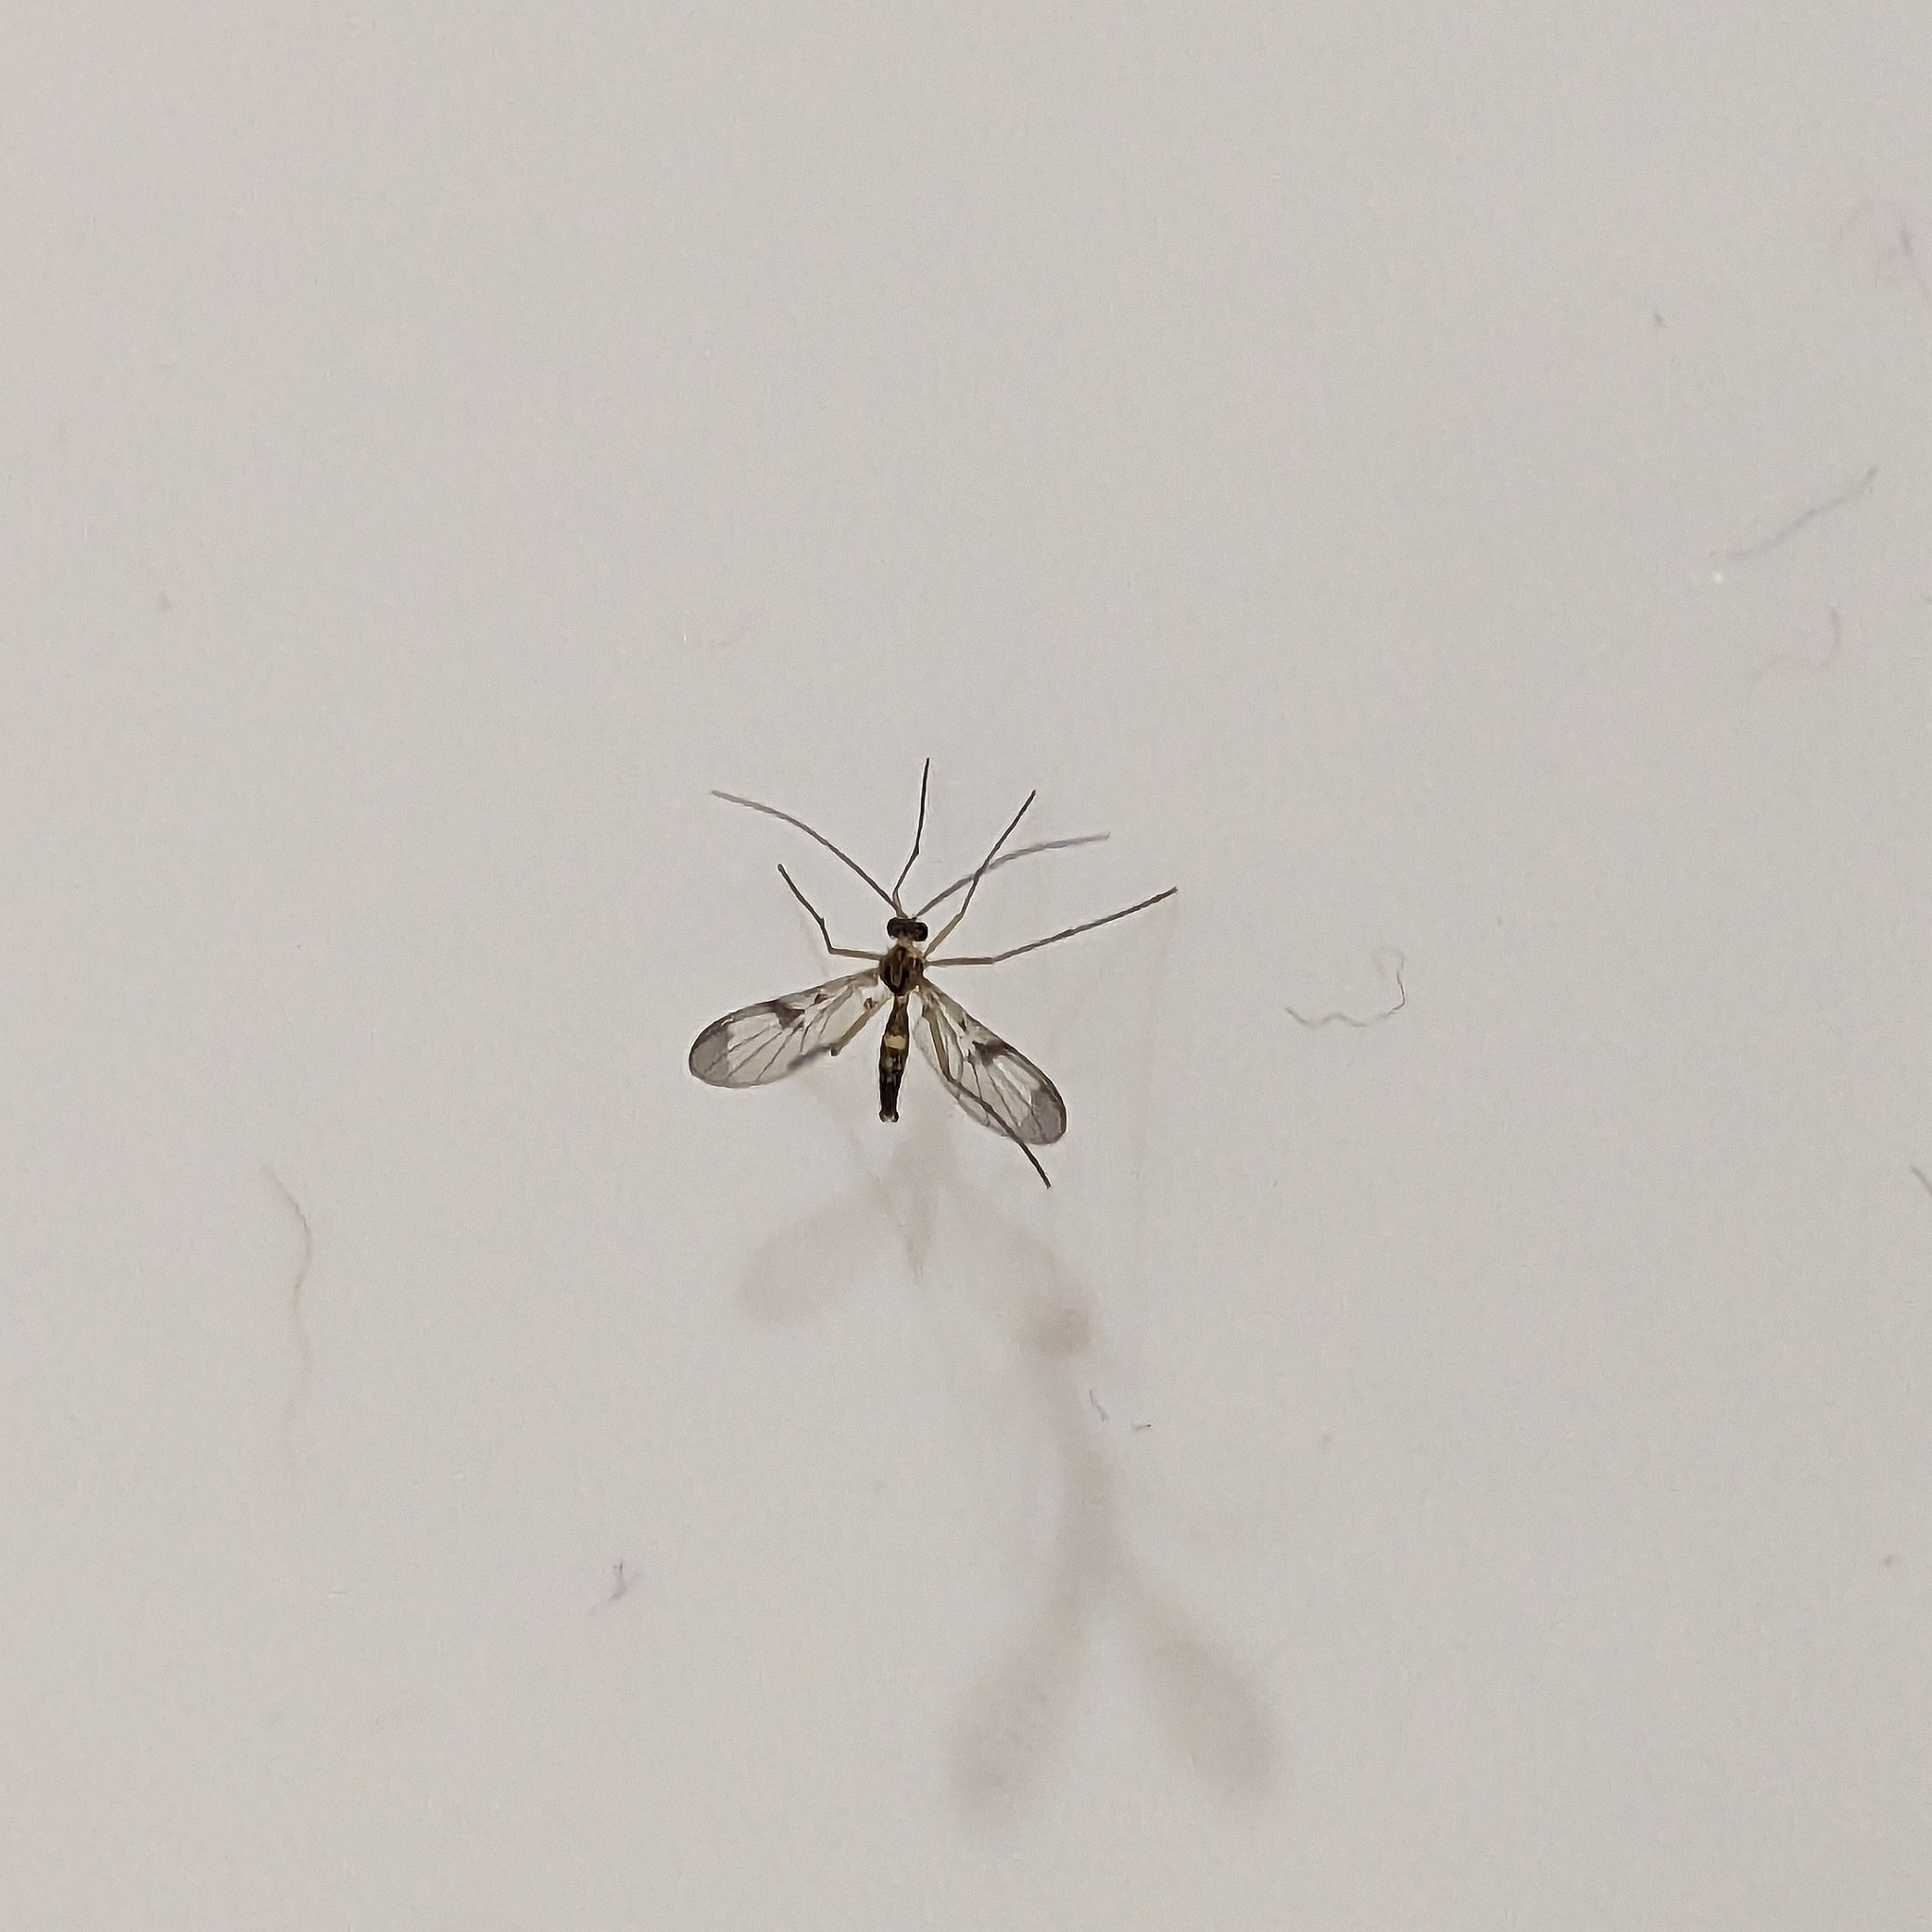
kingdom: Animalia
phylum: Arthropoda
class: Insecta
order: Diptera
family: Keroplatidae
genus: Macrocera
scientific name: Macrocera scoparia
